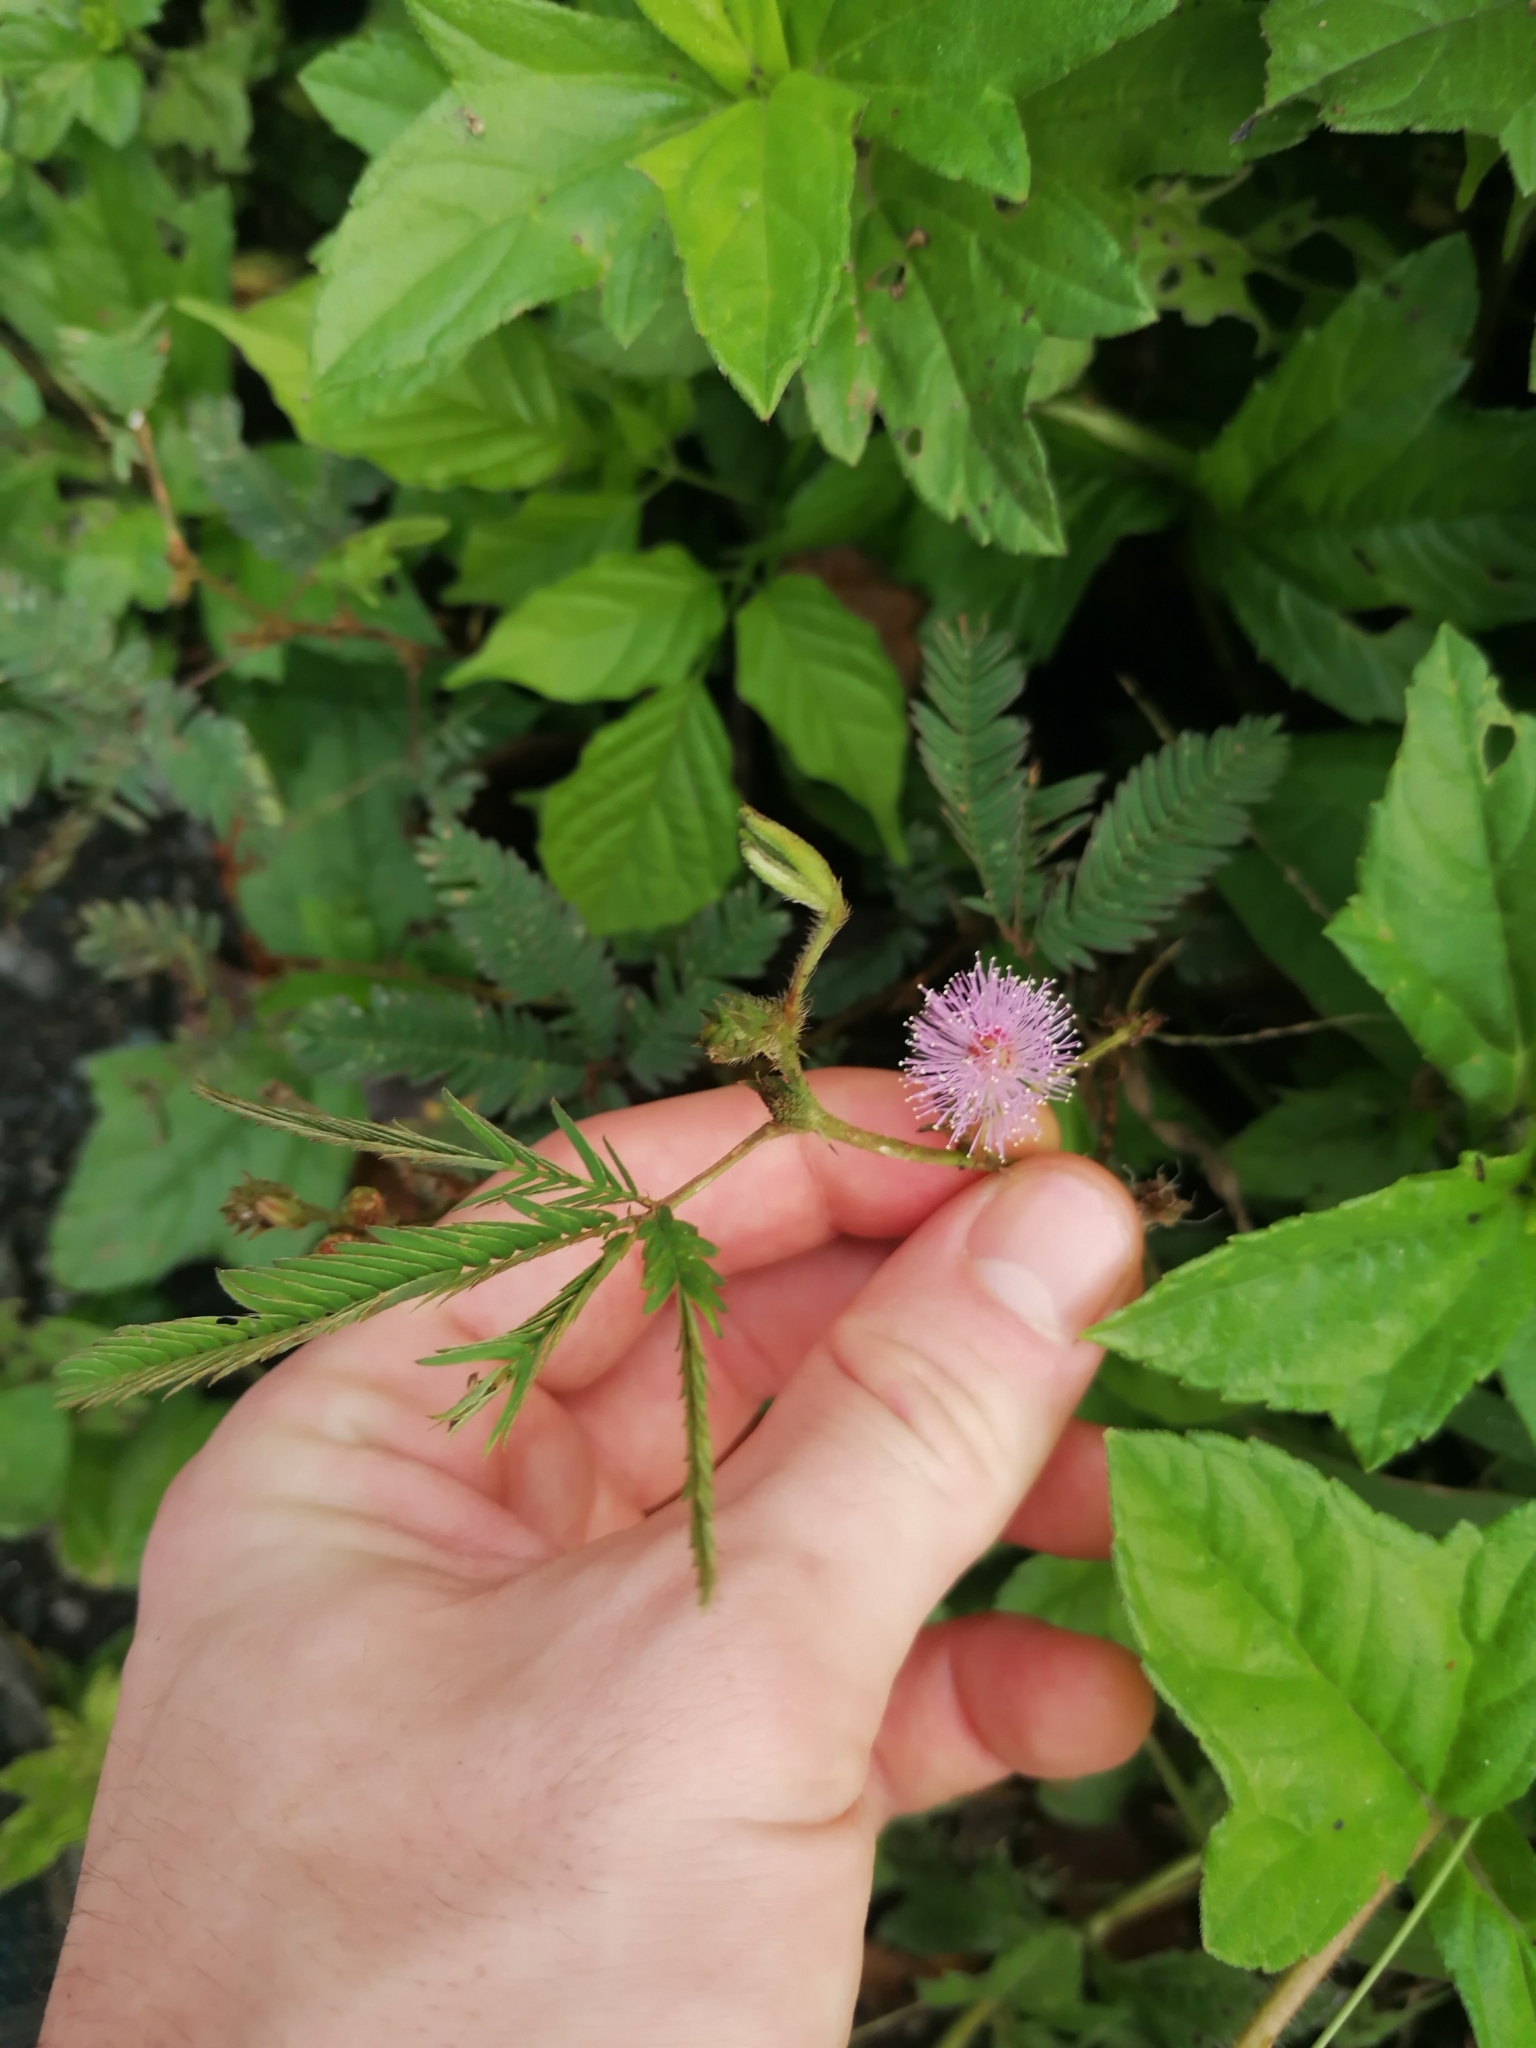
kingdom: Plantae
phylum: Tracheophyta
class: Magnoliopsida
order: Fabales
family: Fabaceae
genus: Mimosa
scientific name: Mimosa pudica
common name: Sensitive plant
